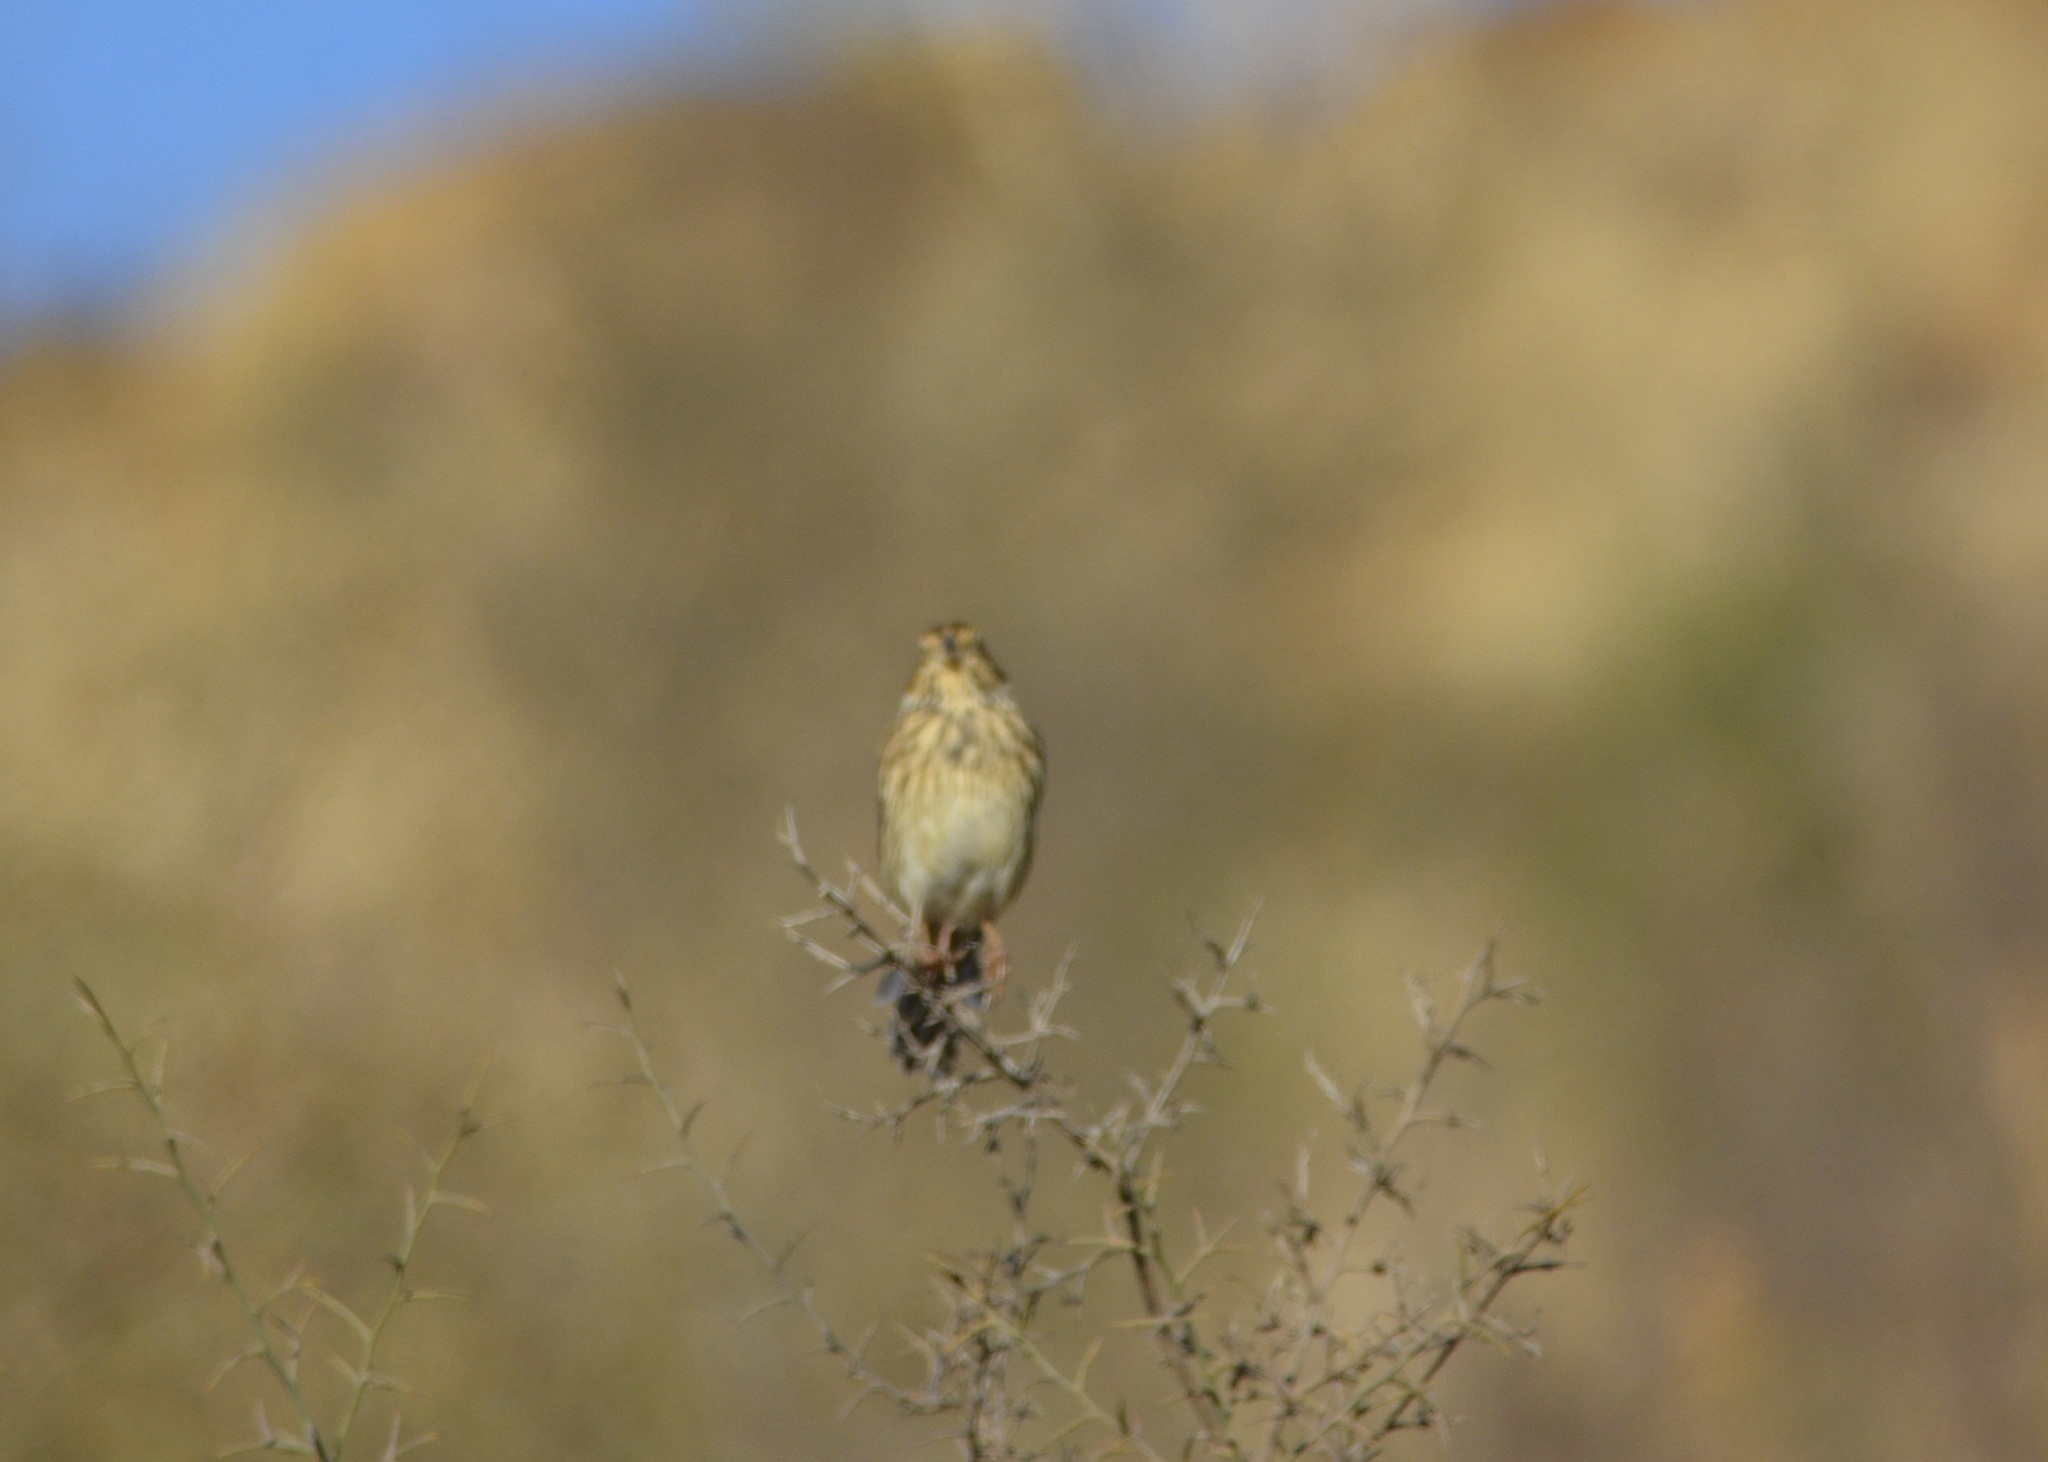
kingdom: Animalia
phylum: Chordata
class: Aves
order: Passeriformes
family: Emberizidae
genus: Emberiza
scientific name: Emberiza calandra
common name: Corn bunting
